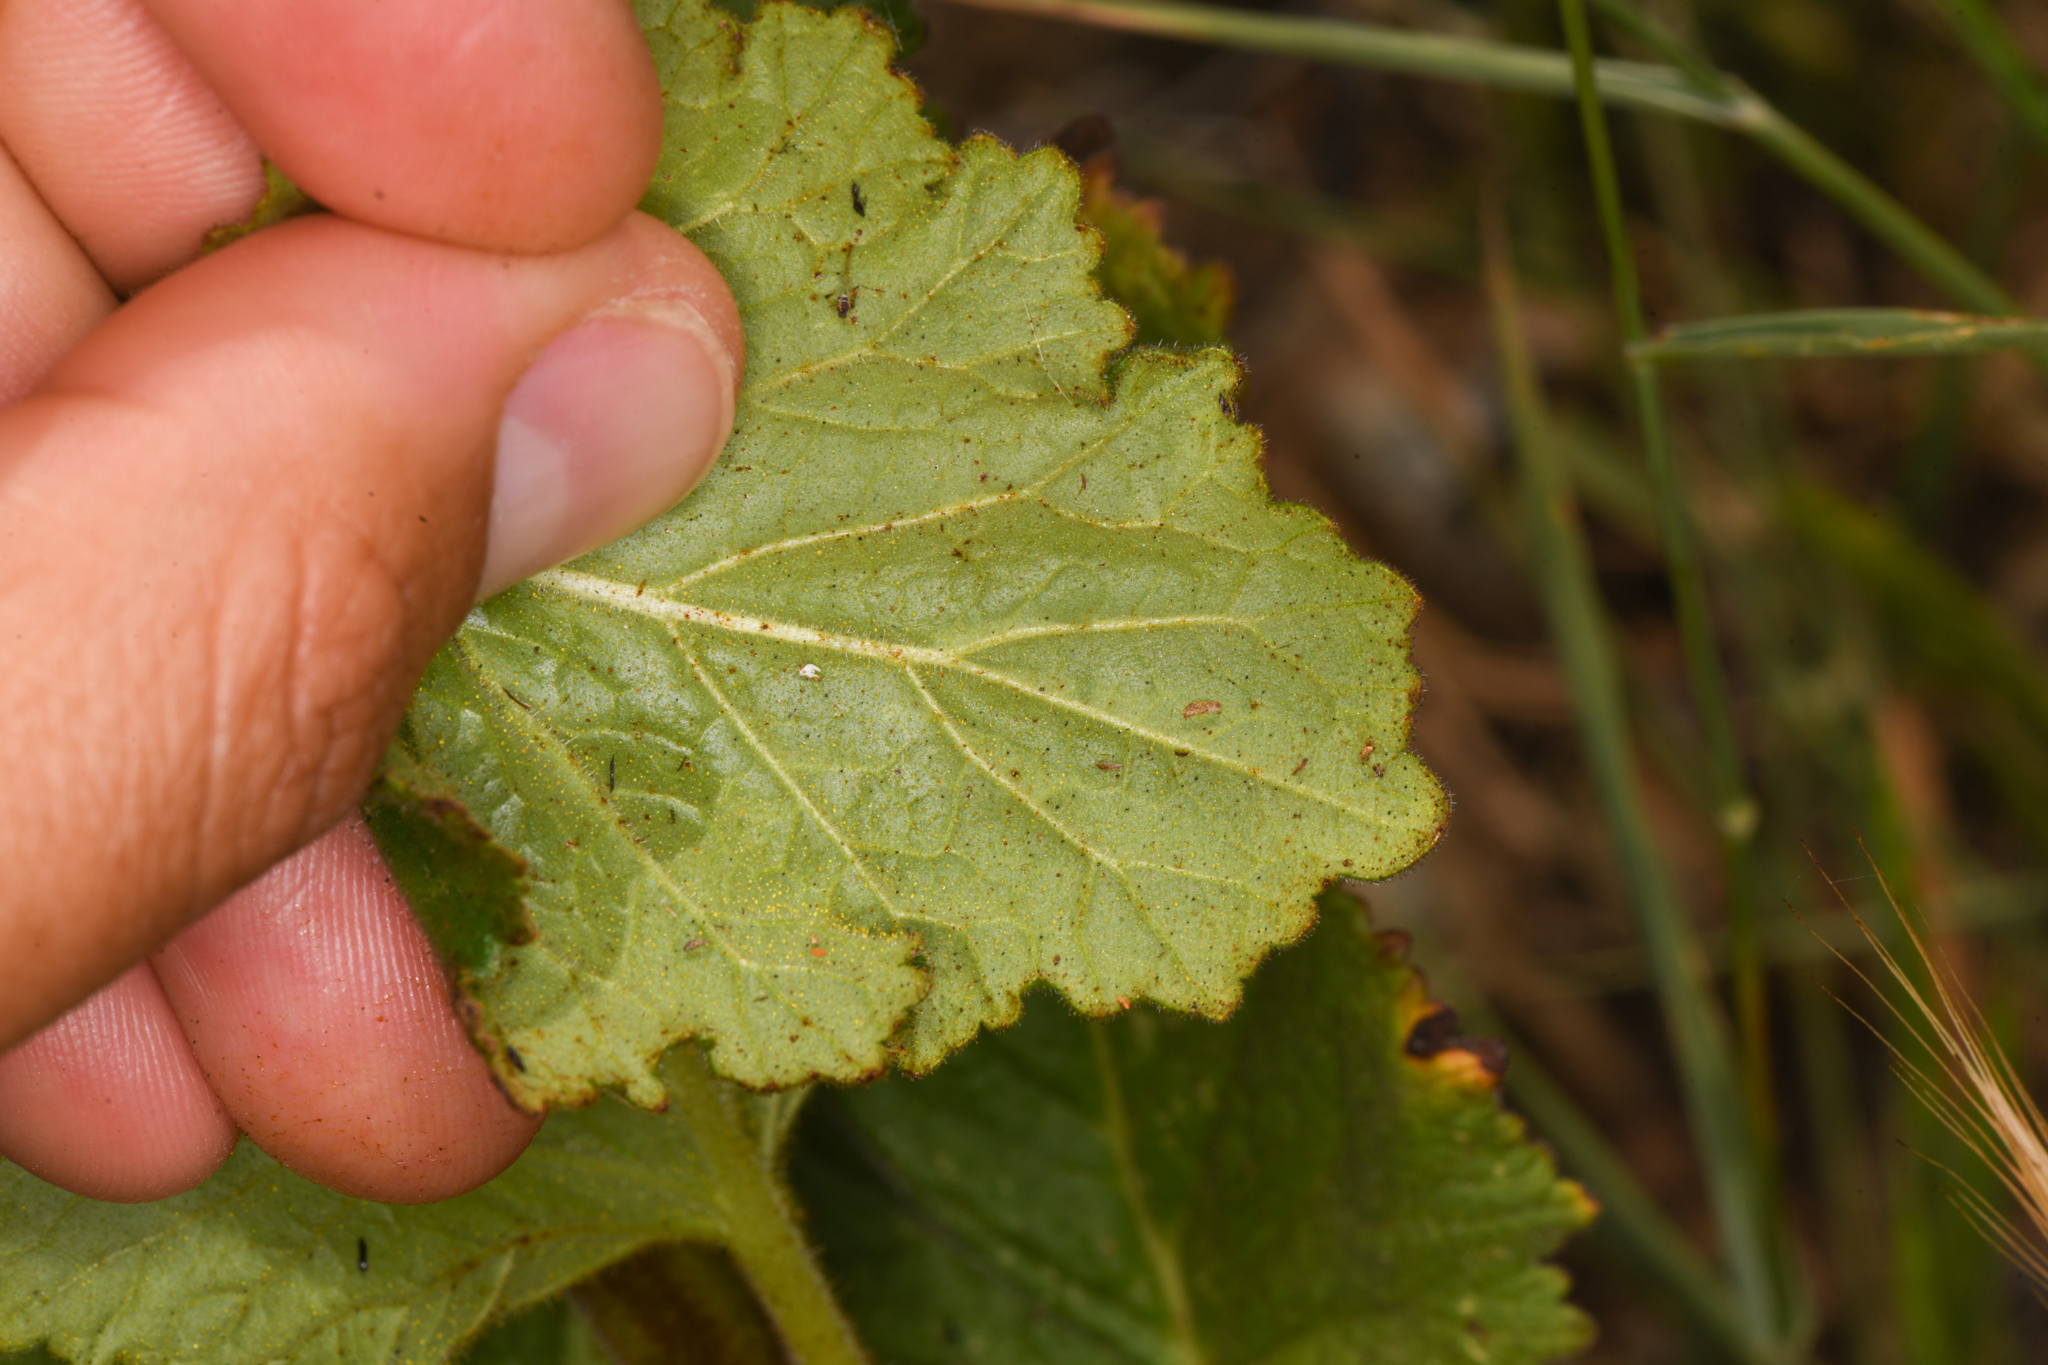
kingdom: Plantae
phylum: Tracheophyta
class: Magnoliopsida
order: Boraginales
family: Hydrophyllaceae
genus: Phacelia
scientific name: Phacelia grandiflora
